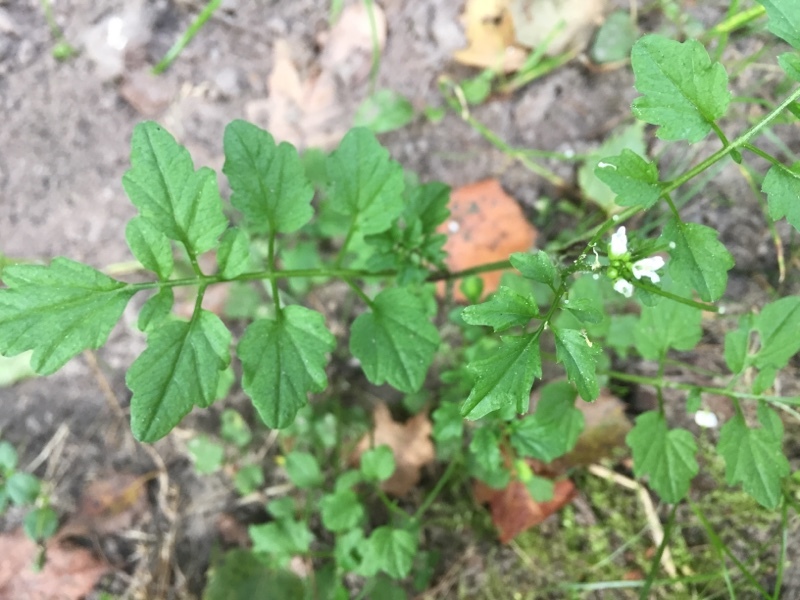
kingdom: Plantae
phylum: Tracheophyta
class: Magnoliopsida
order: Brassicales
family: Brassicaceae
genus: Cardamine
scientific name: Cardamine flexuosa
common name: Woodland bittercress
